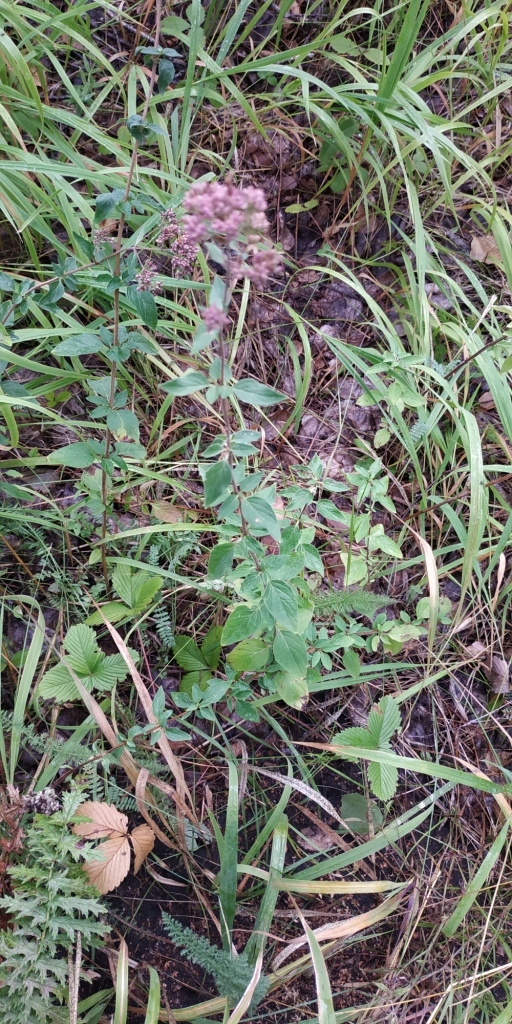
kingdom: Plantae
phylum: Tracheophyta
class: Magnoliopsida
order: Lamiales
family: Lamiaceae
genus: Origanum
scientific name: Origanum vulgare
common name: Wild marjoram
